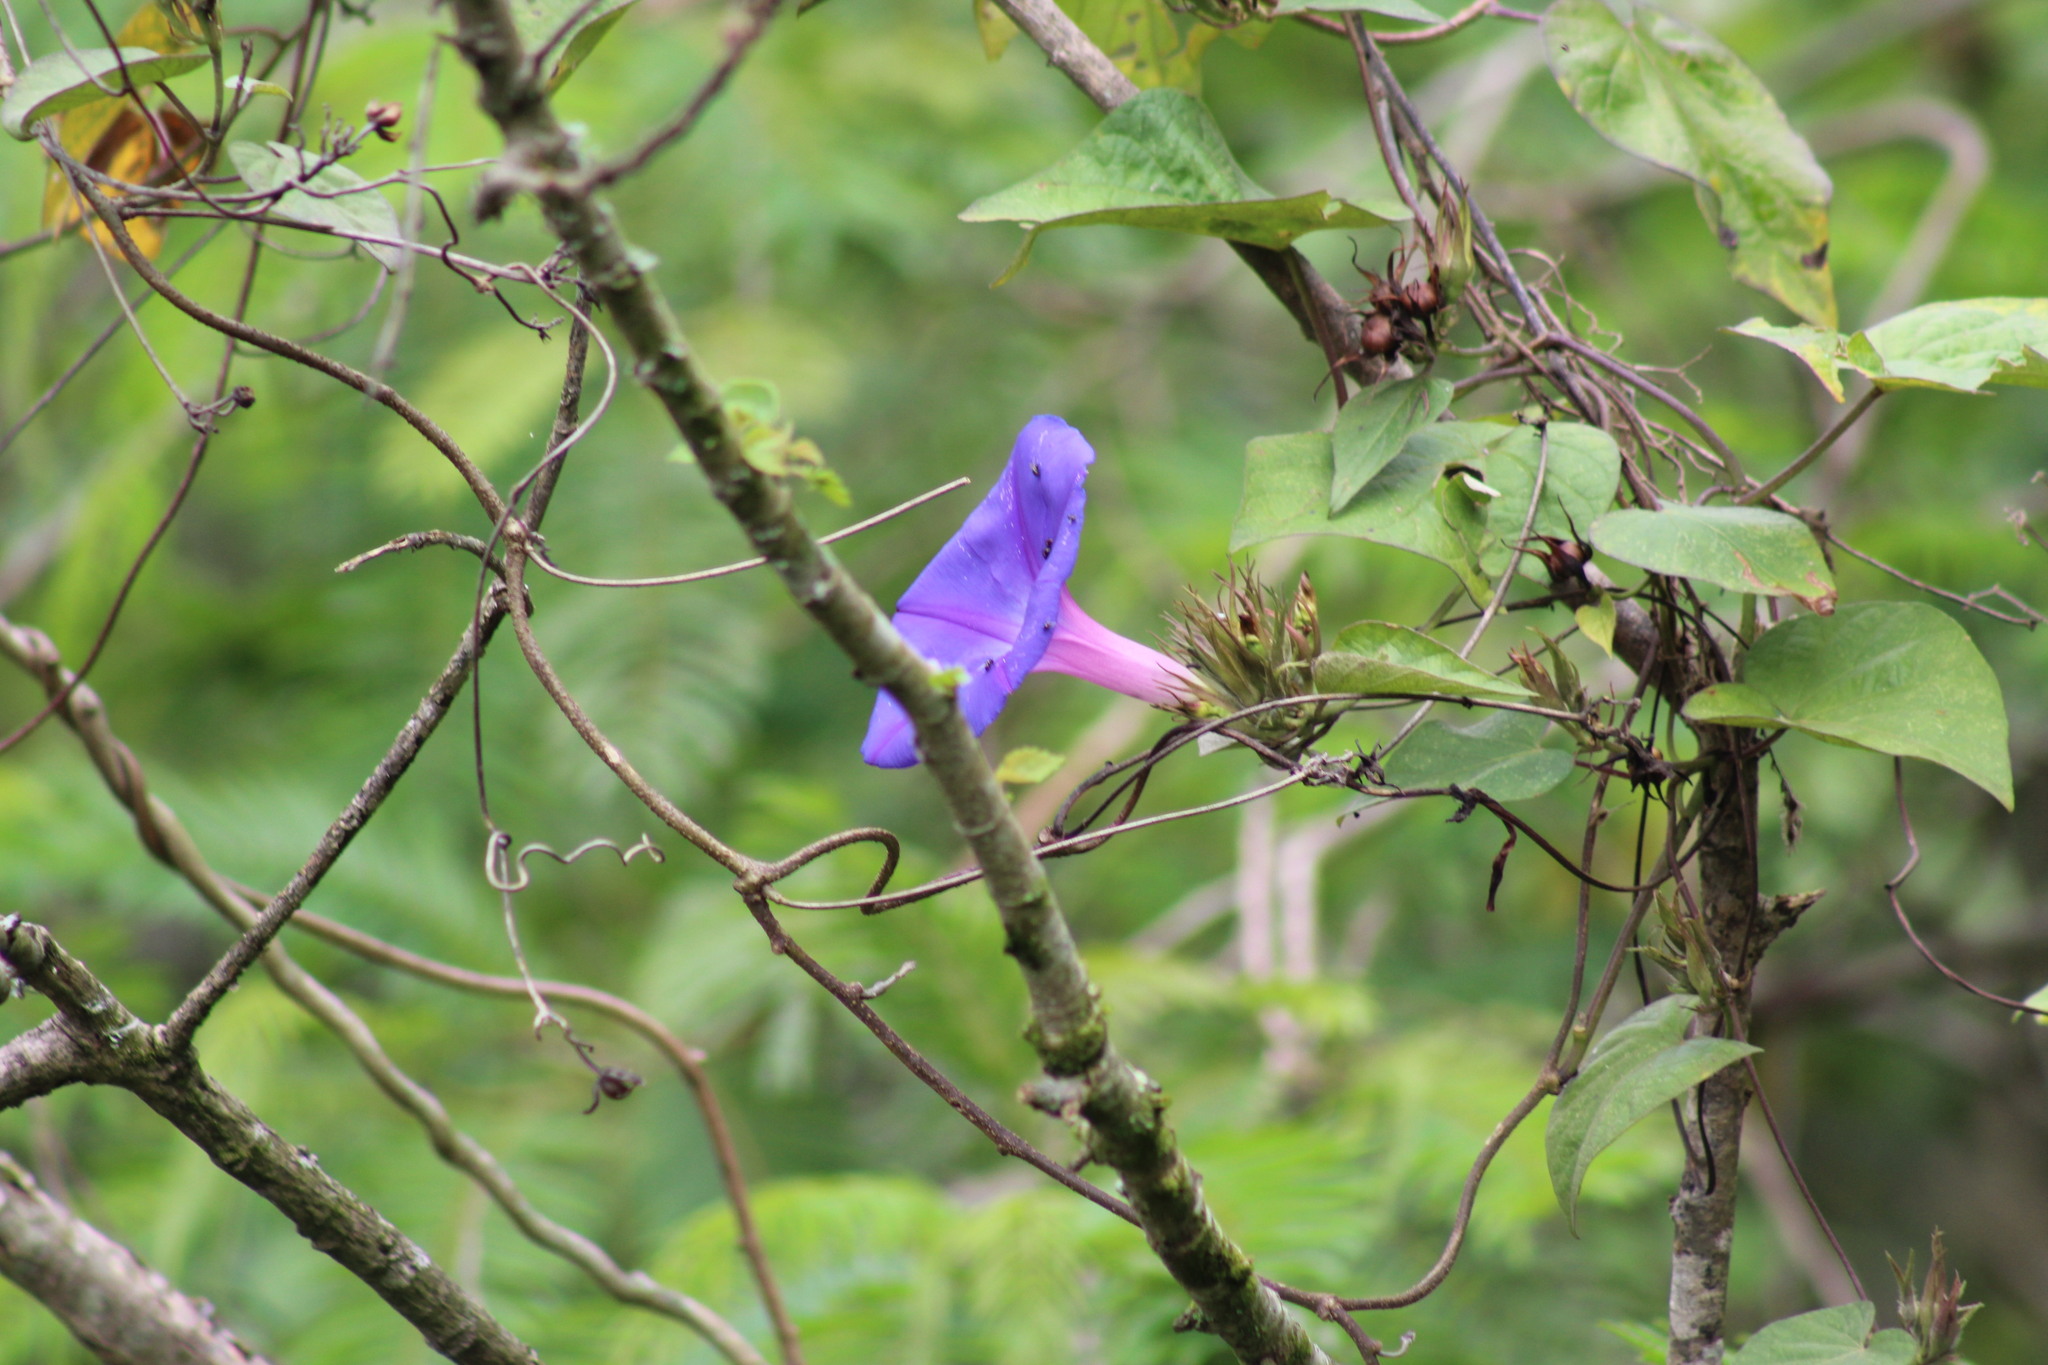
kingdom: Plantae
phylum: Tracheophyta
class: Magnoliopsida
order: Solanales
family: Convolvulaceae
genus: Ipomoea
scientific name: Ipomoea indica
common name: Blue dawnflower
